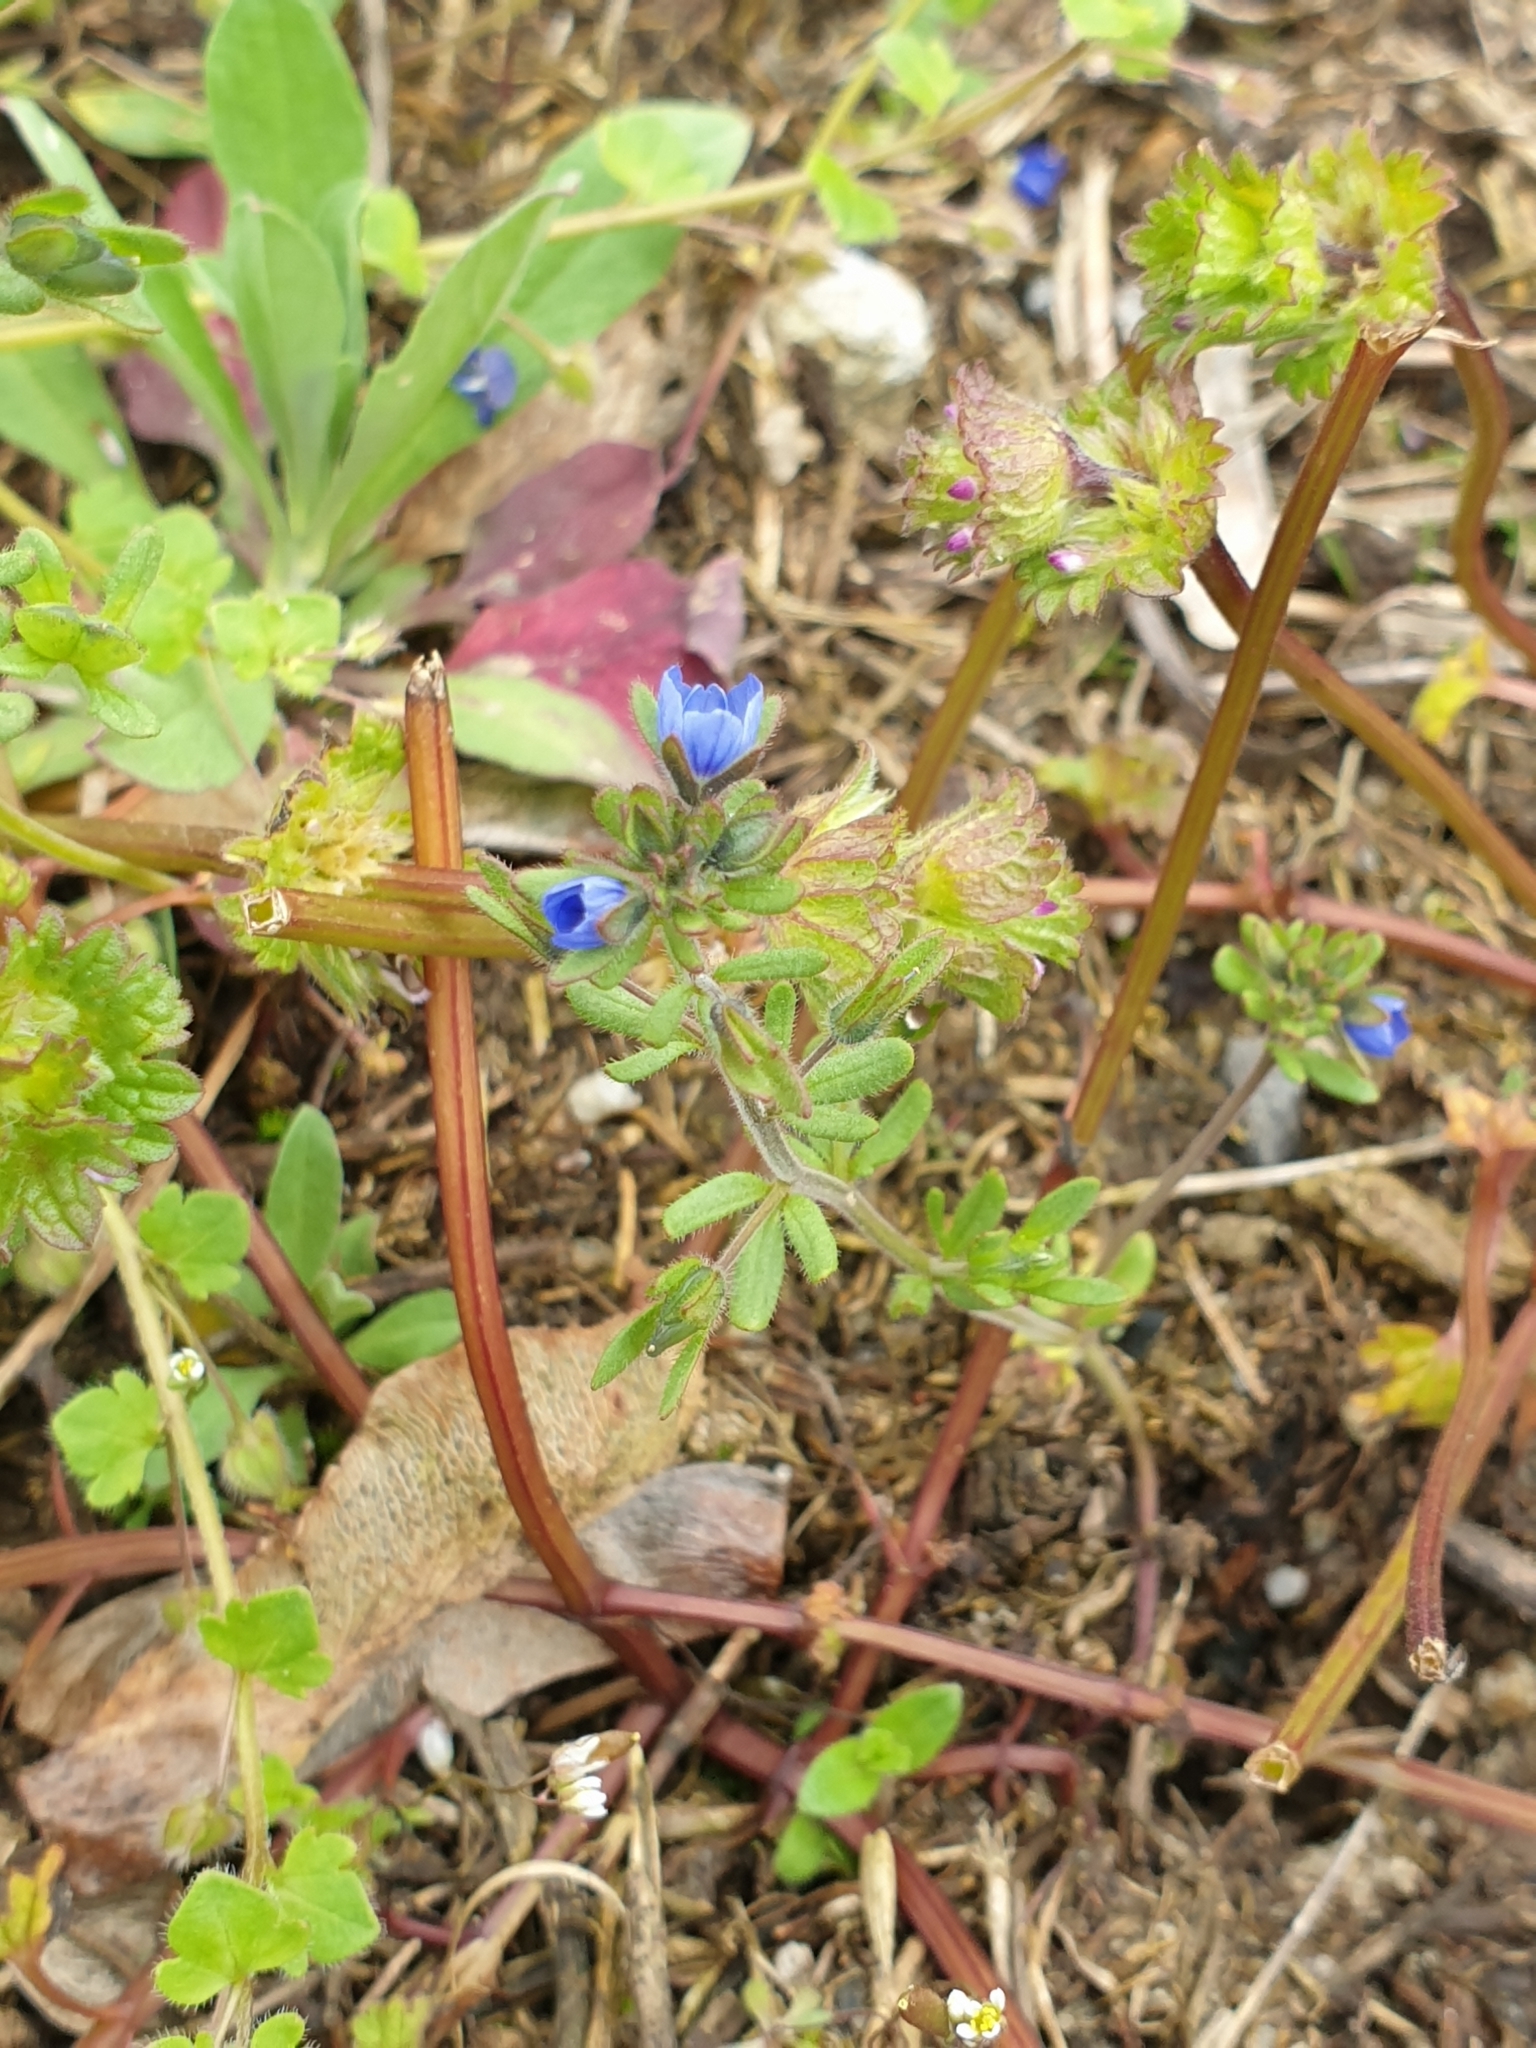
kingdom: Plantae
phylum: Tracheophyta
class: Magnoliopsida
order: Lamiales
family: Plantaginaceae
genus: Veronica
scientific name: Veronica triphyllos
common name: Fingered speedwell
